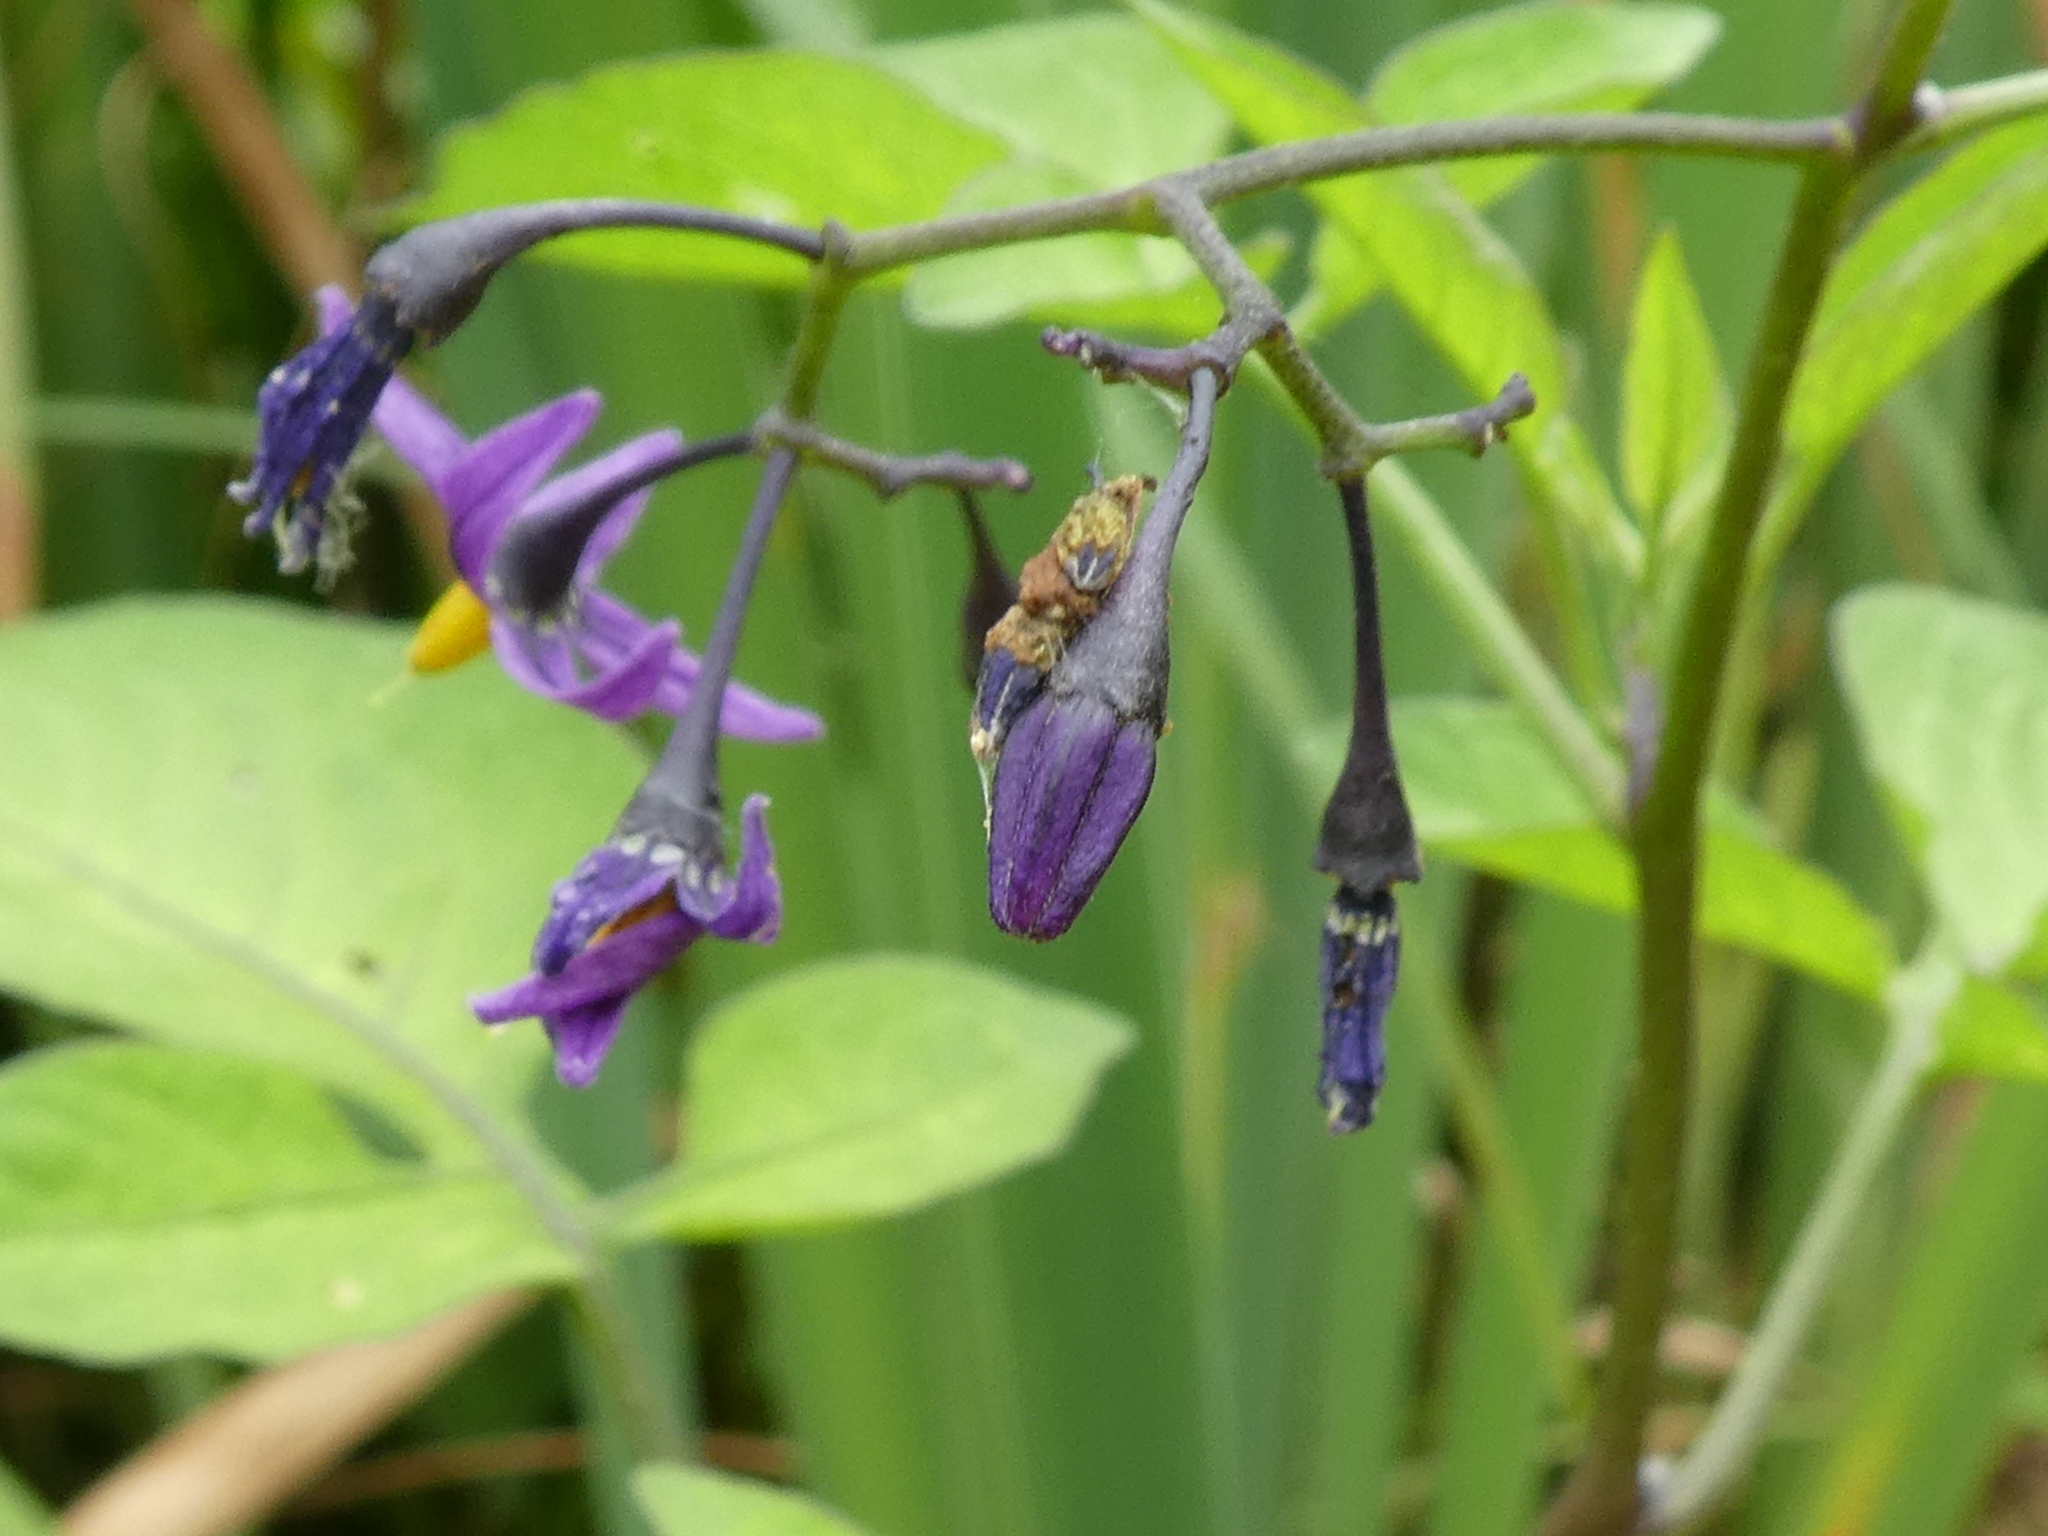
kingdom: Plantae
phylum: Tracheophyta
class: Magnoliopsida
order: Solanales
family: Solanaceae
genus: Solanum
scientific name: Solanum dulcamara
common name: Climbing nightshade
